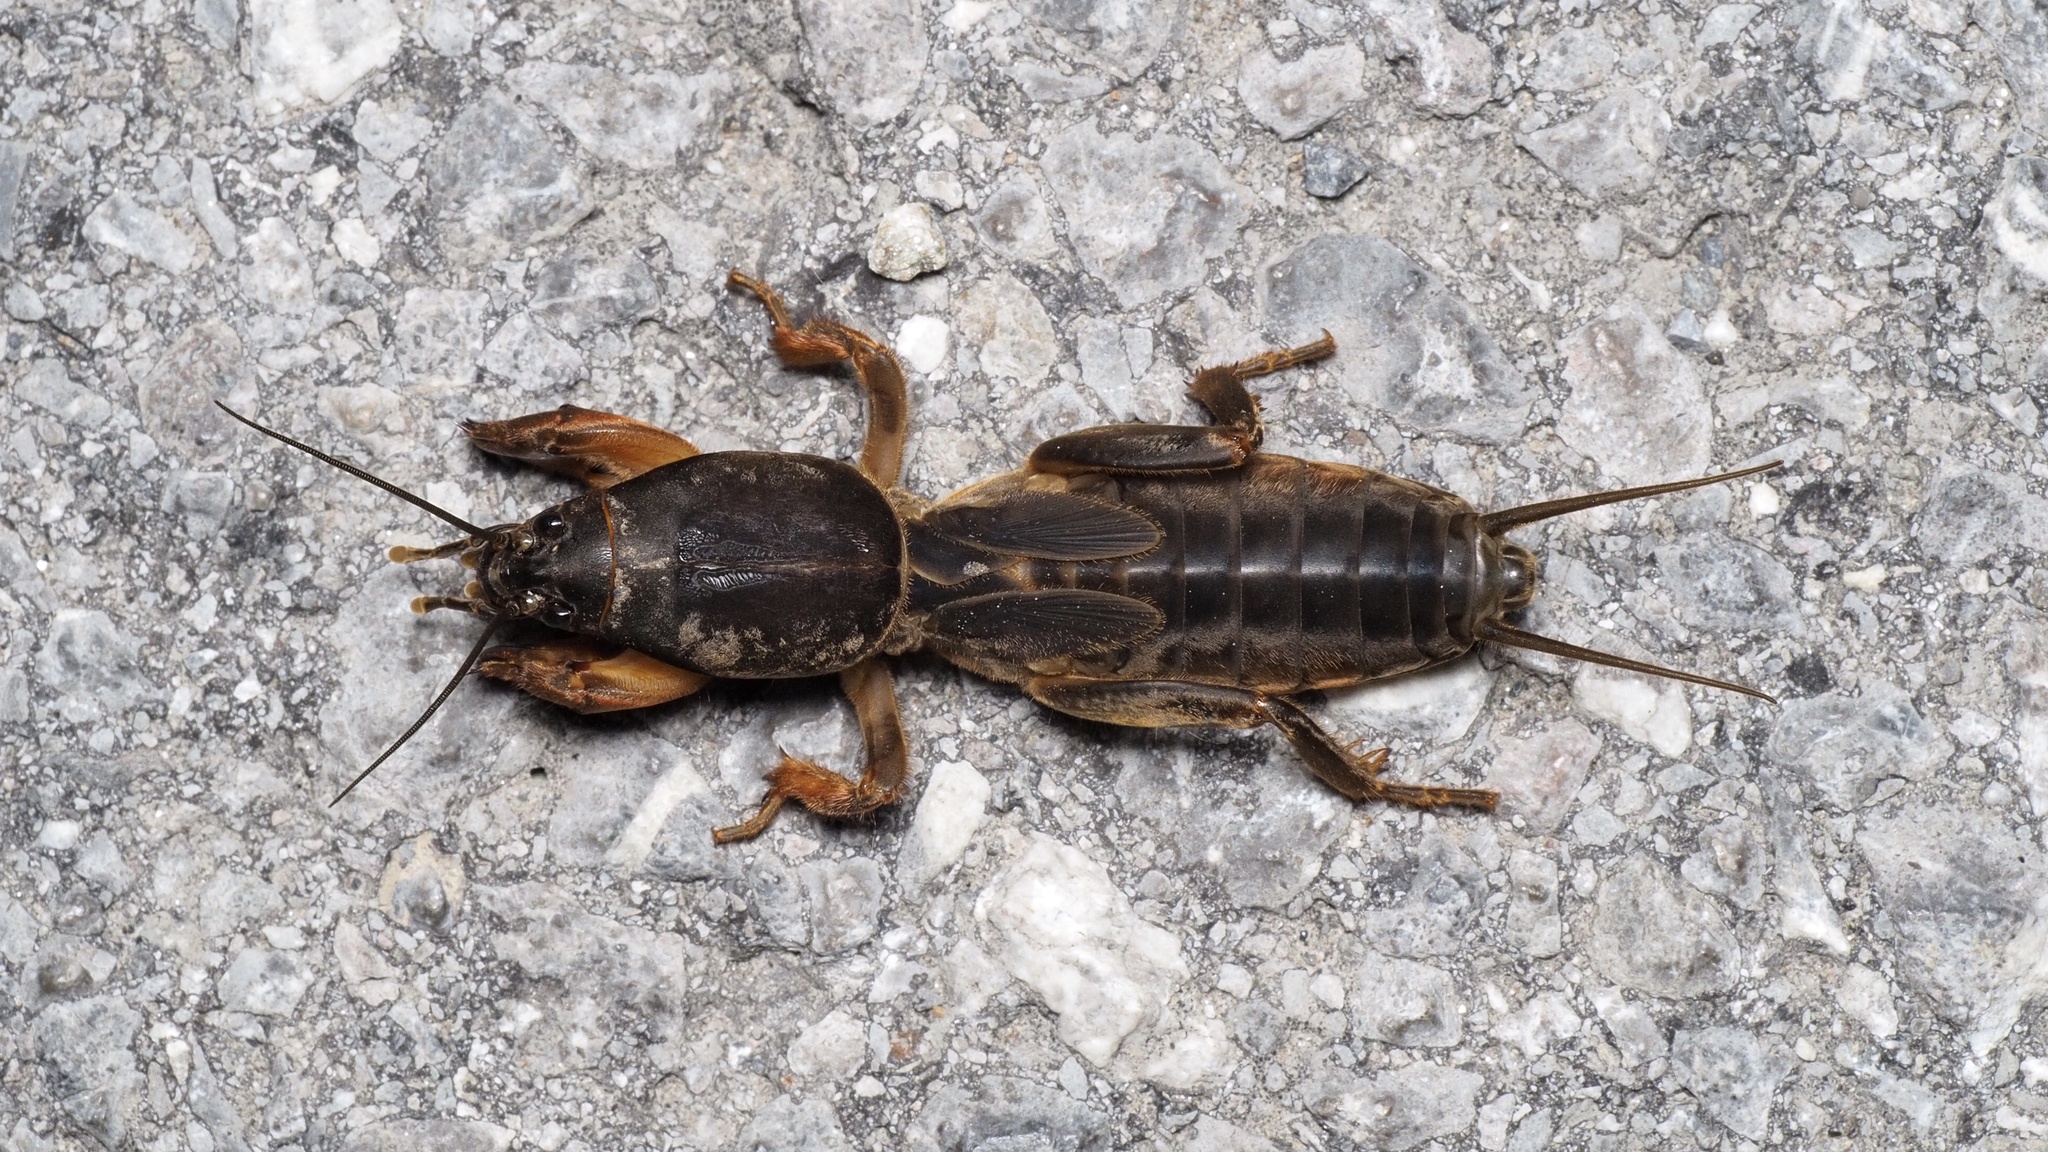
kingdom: Animalia
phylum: Arthropoda
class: Insecta
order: Orthoptera
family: Gryllotalpidae
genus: Gryllotalpa
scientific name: Gryllotalpa gryllotalpa
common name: European mole cricket
